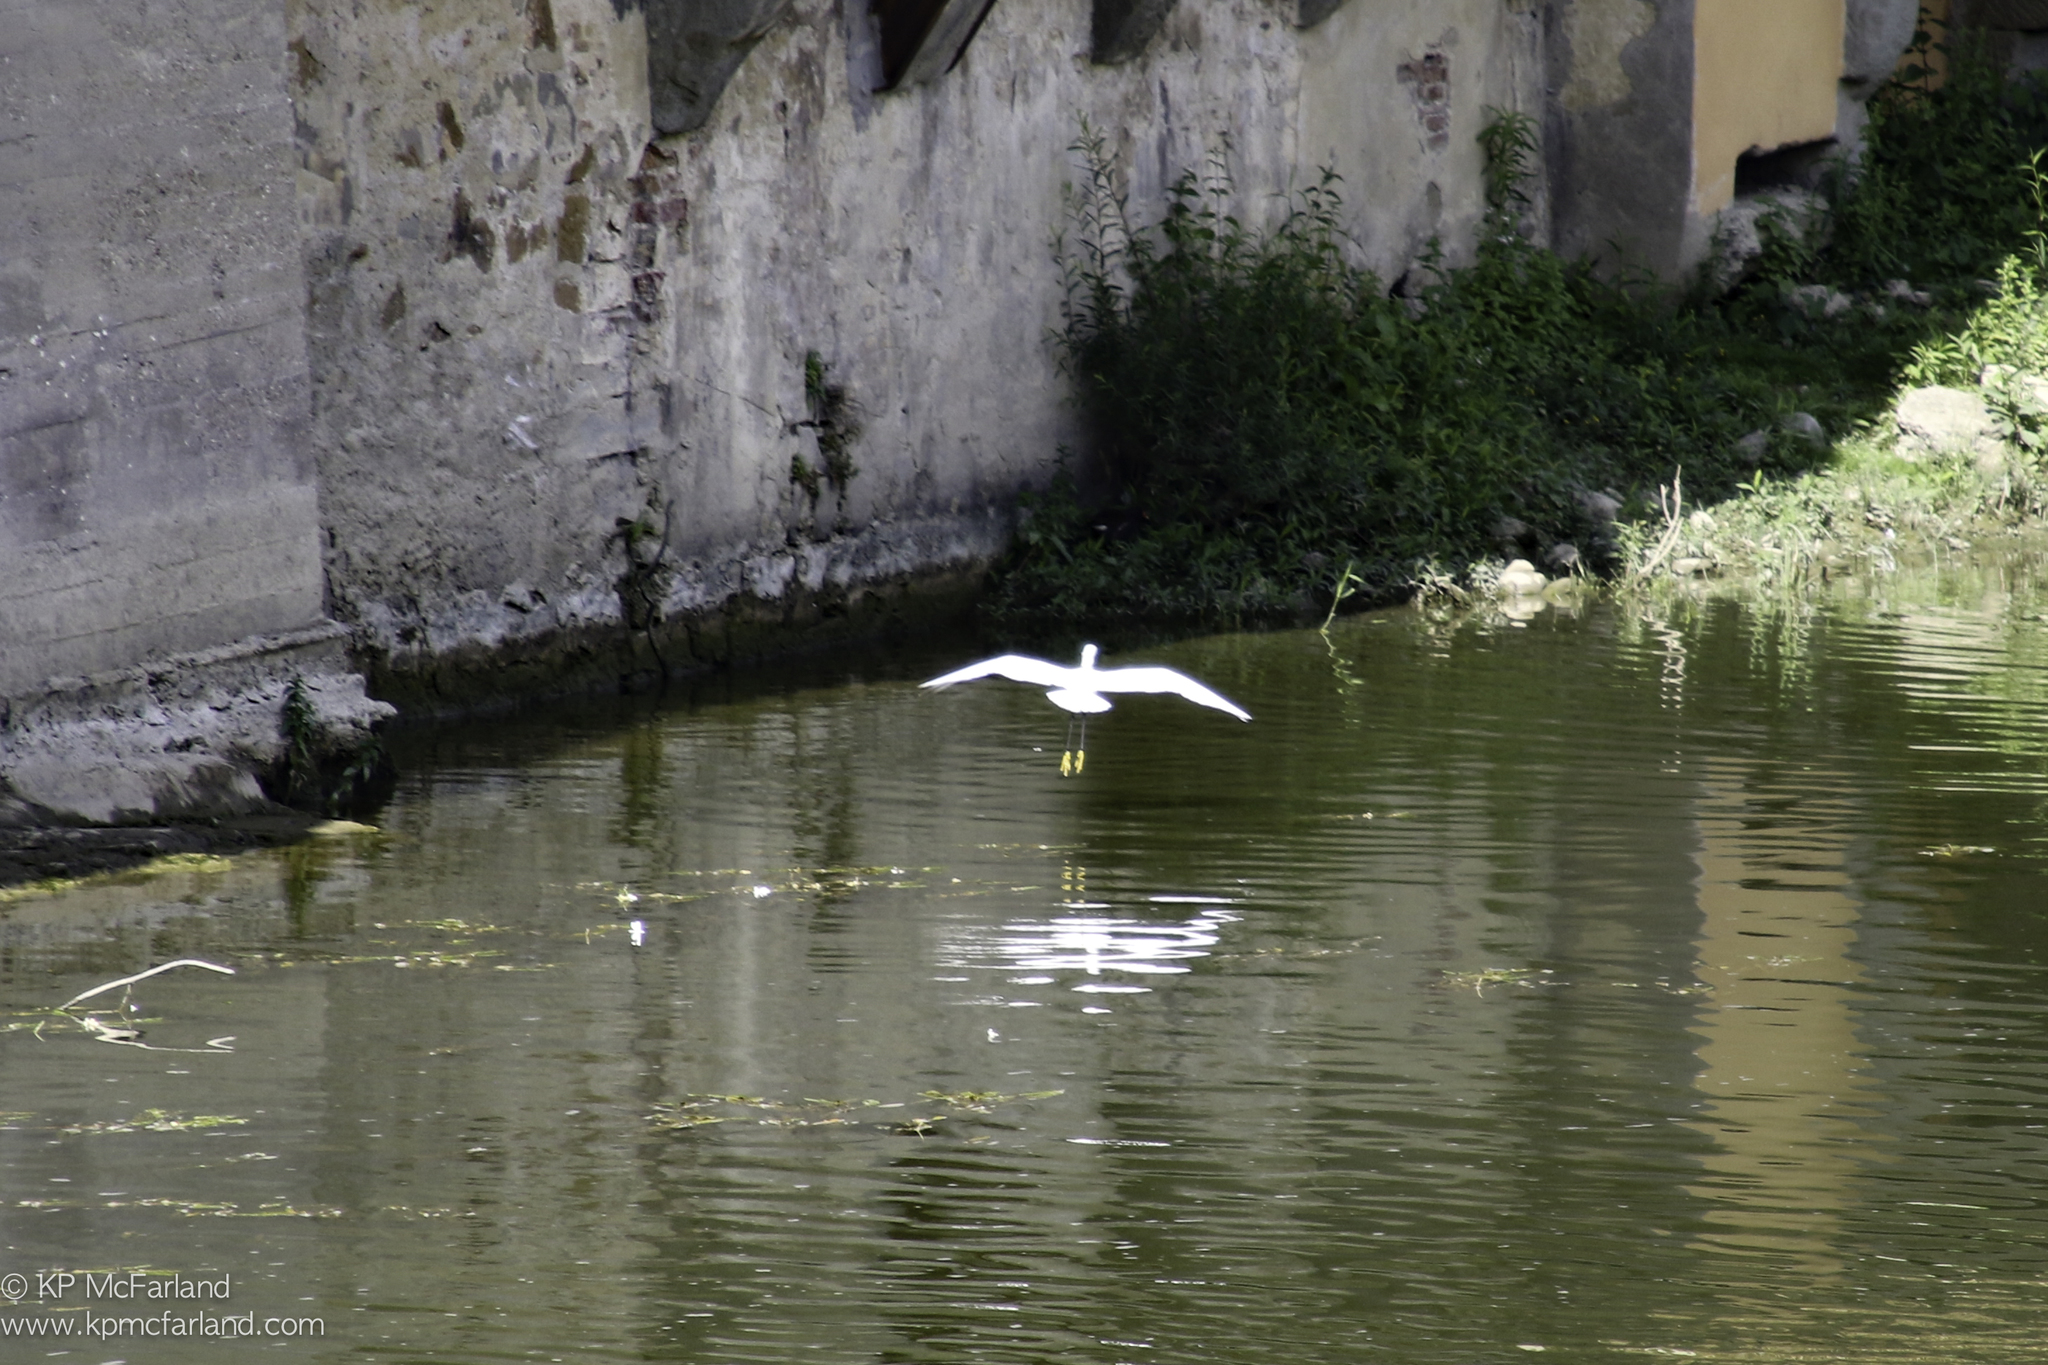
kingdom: Animalia
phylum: Chordata
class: Aves
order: Pelecaniformes
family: Ardeidae
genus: Egretta
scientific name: Egretta garzetta
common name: Little egret
